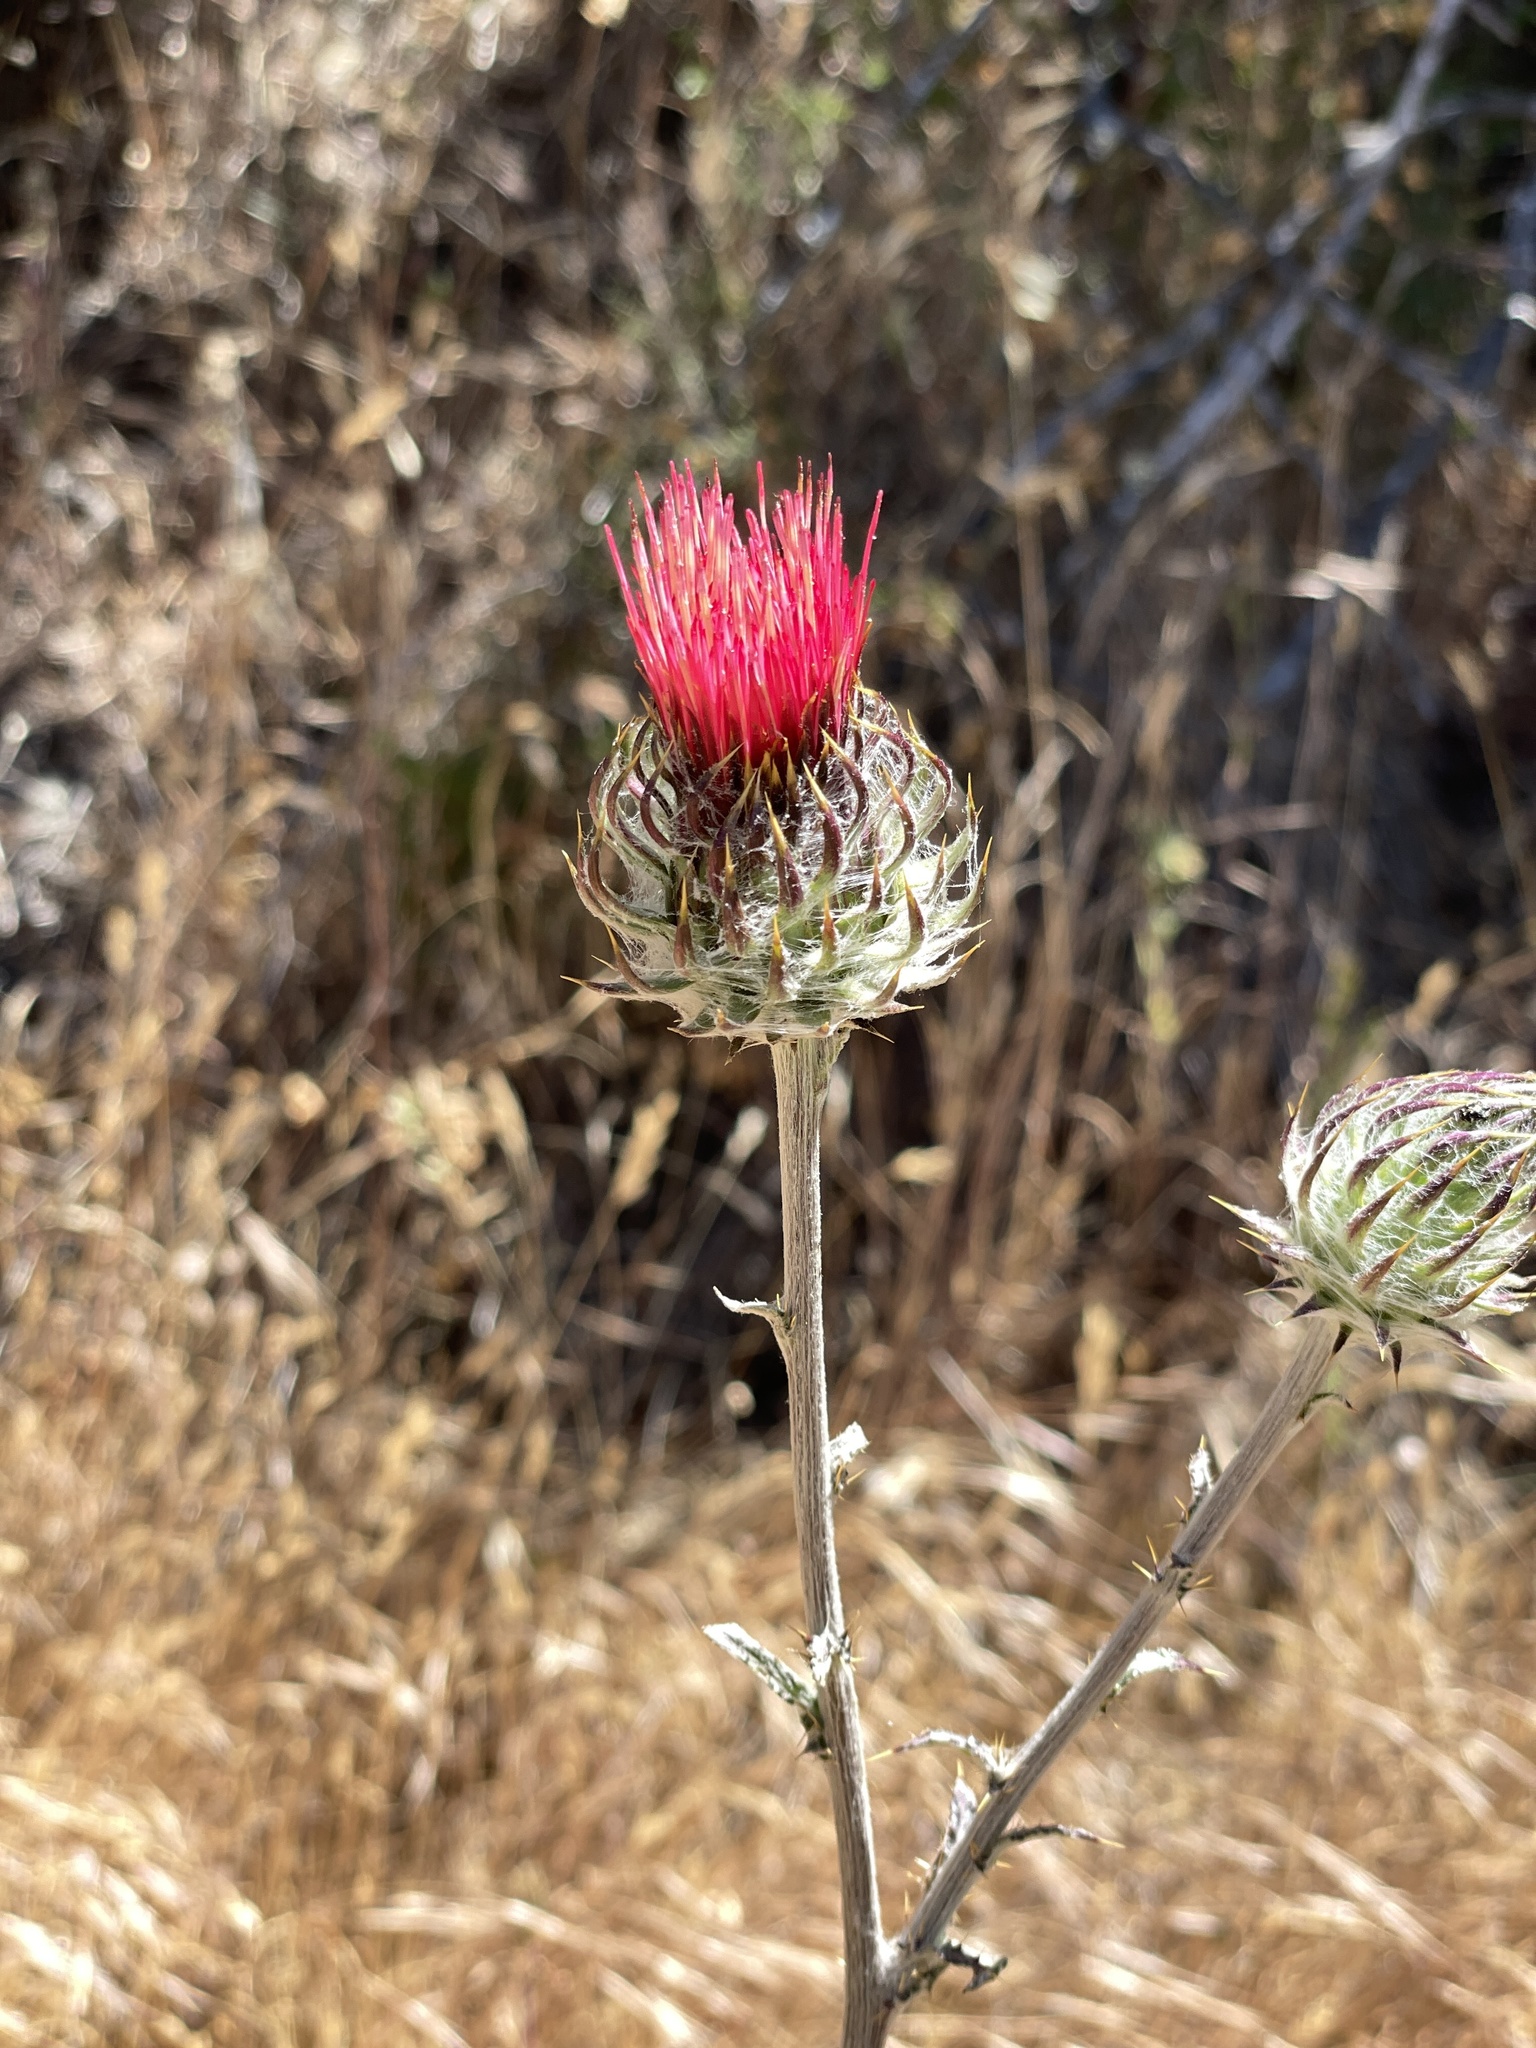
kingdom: Plantae
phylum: Tracheophyta
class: Magnoliopsida
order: Asterales
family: Asteraceae
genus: Cirsium
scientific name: Cirsium occidentale
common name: Western thistle
